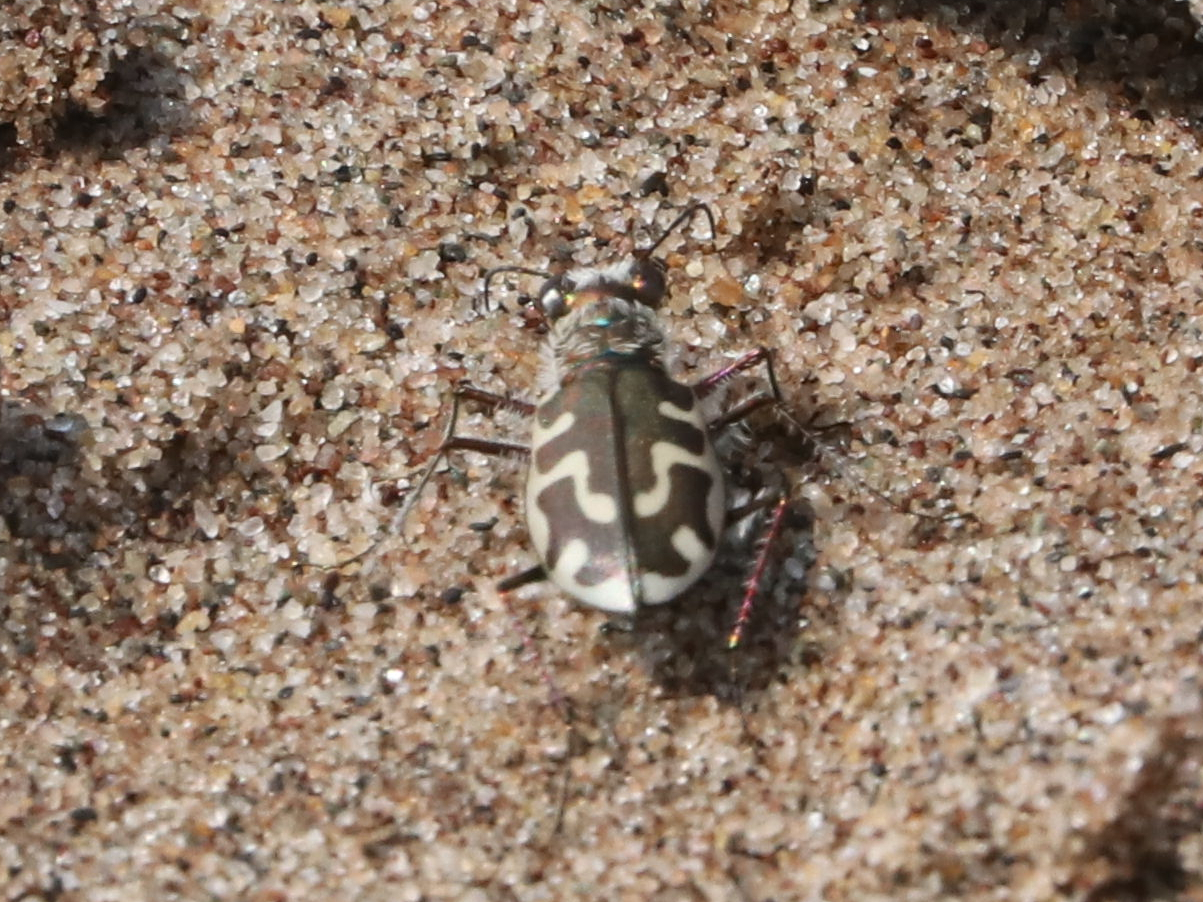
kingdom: Animalia
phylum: Arthropoda
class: Insecta
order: Coleoptera
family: Carabidae
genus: Cicindela
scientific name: Cicindela hirticollis
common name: Hairy-necked tiger beetle
